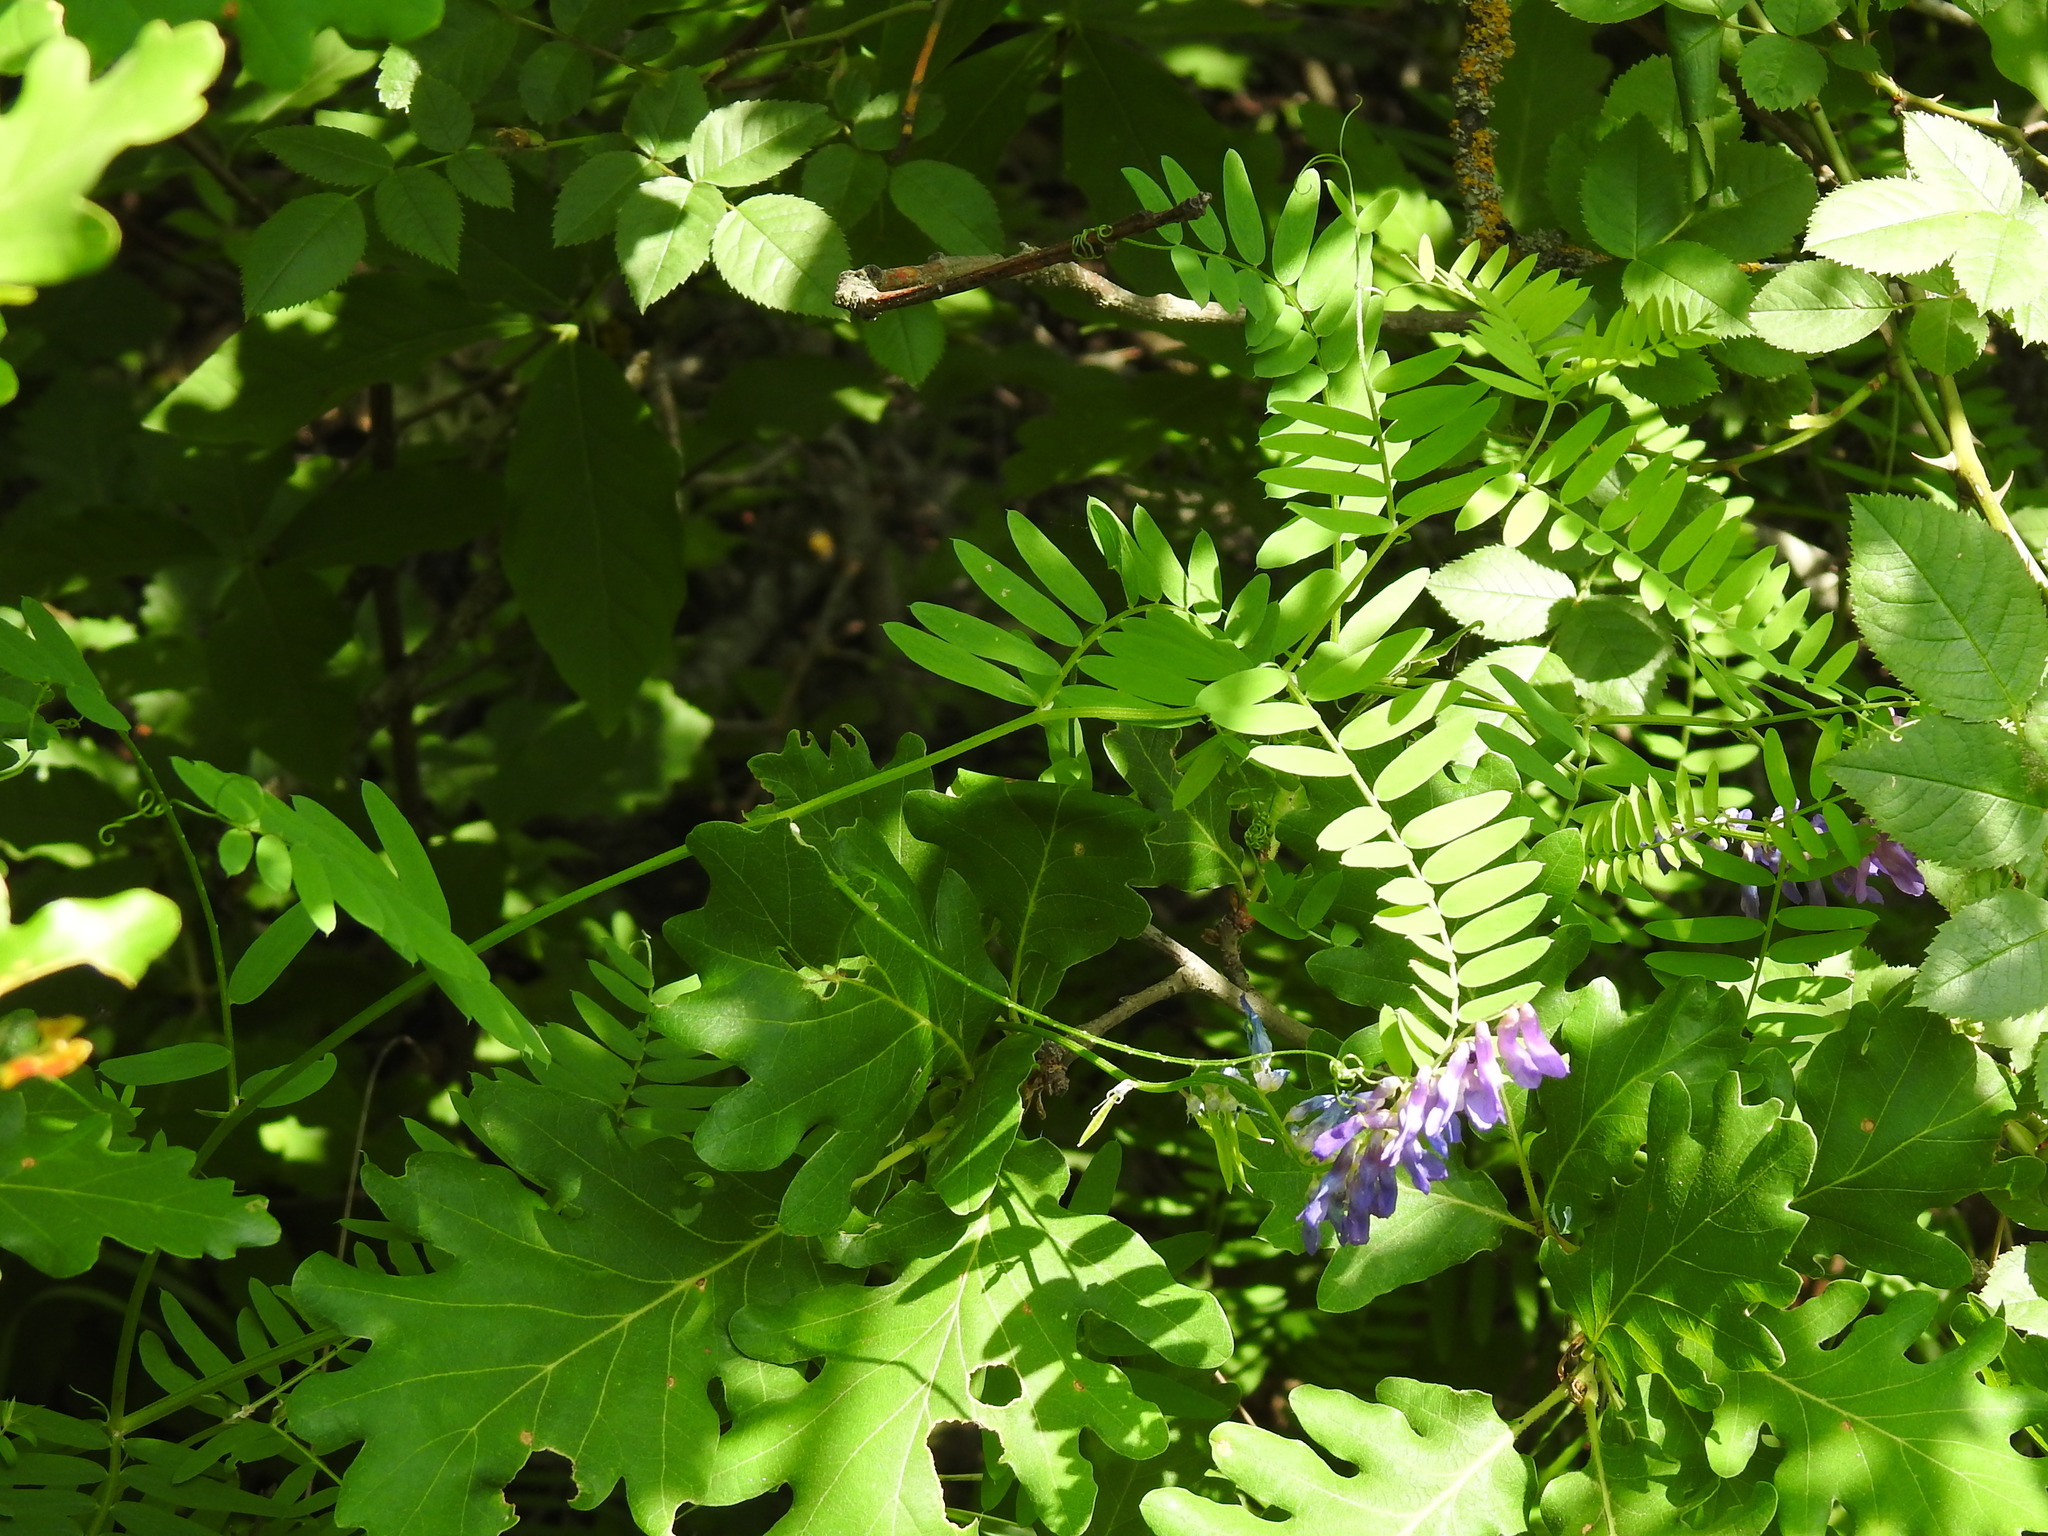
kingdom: Plantae
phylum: Tracheophyta
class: Magnoliopsida
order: Fabales
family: Fabaceae
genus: Vicia
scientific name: Vicia cracca
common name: Bird vetch
